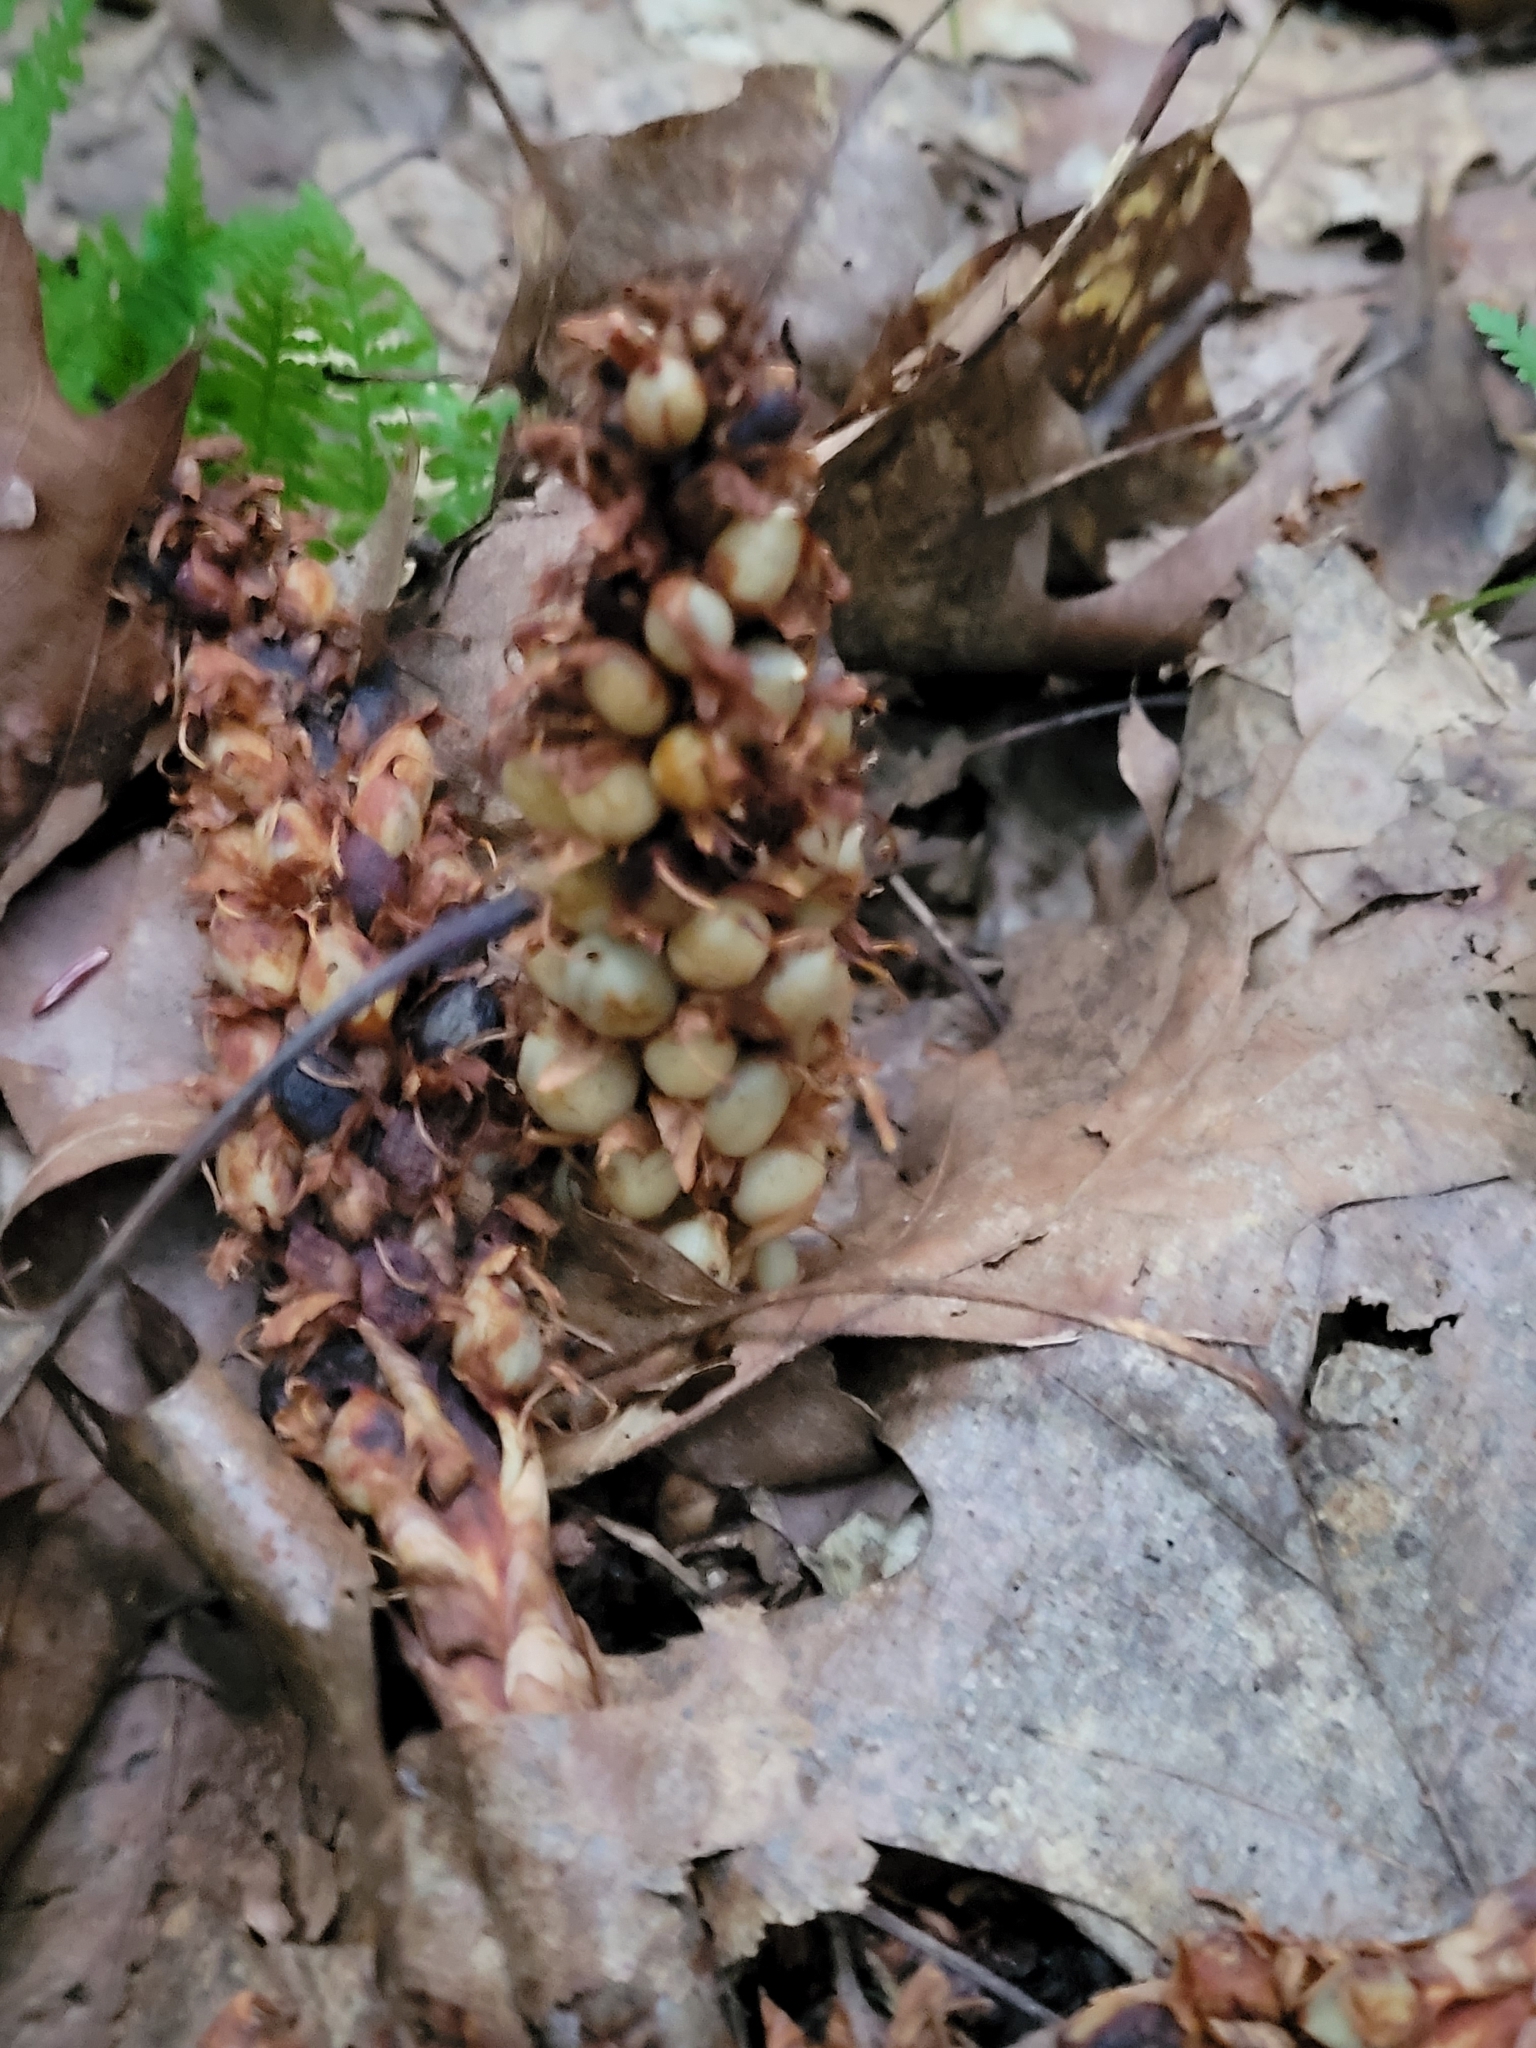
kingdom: Plantae
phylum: Tracheophyta
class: Magnoliopsida
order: Lamiales
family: Orobanchaceae
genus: Conopholis
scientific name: Conopholis americana
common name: American cancer-root
